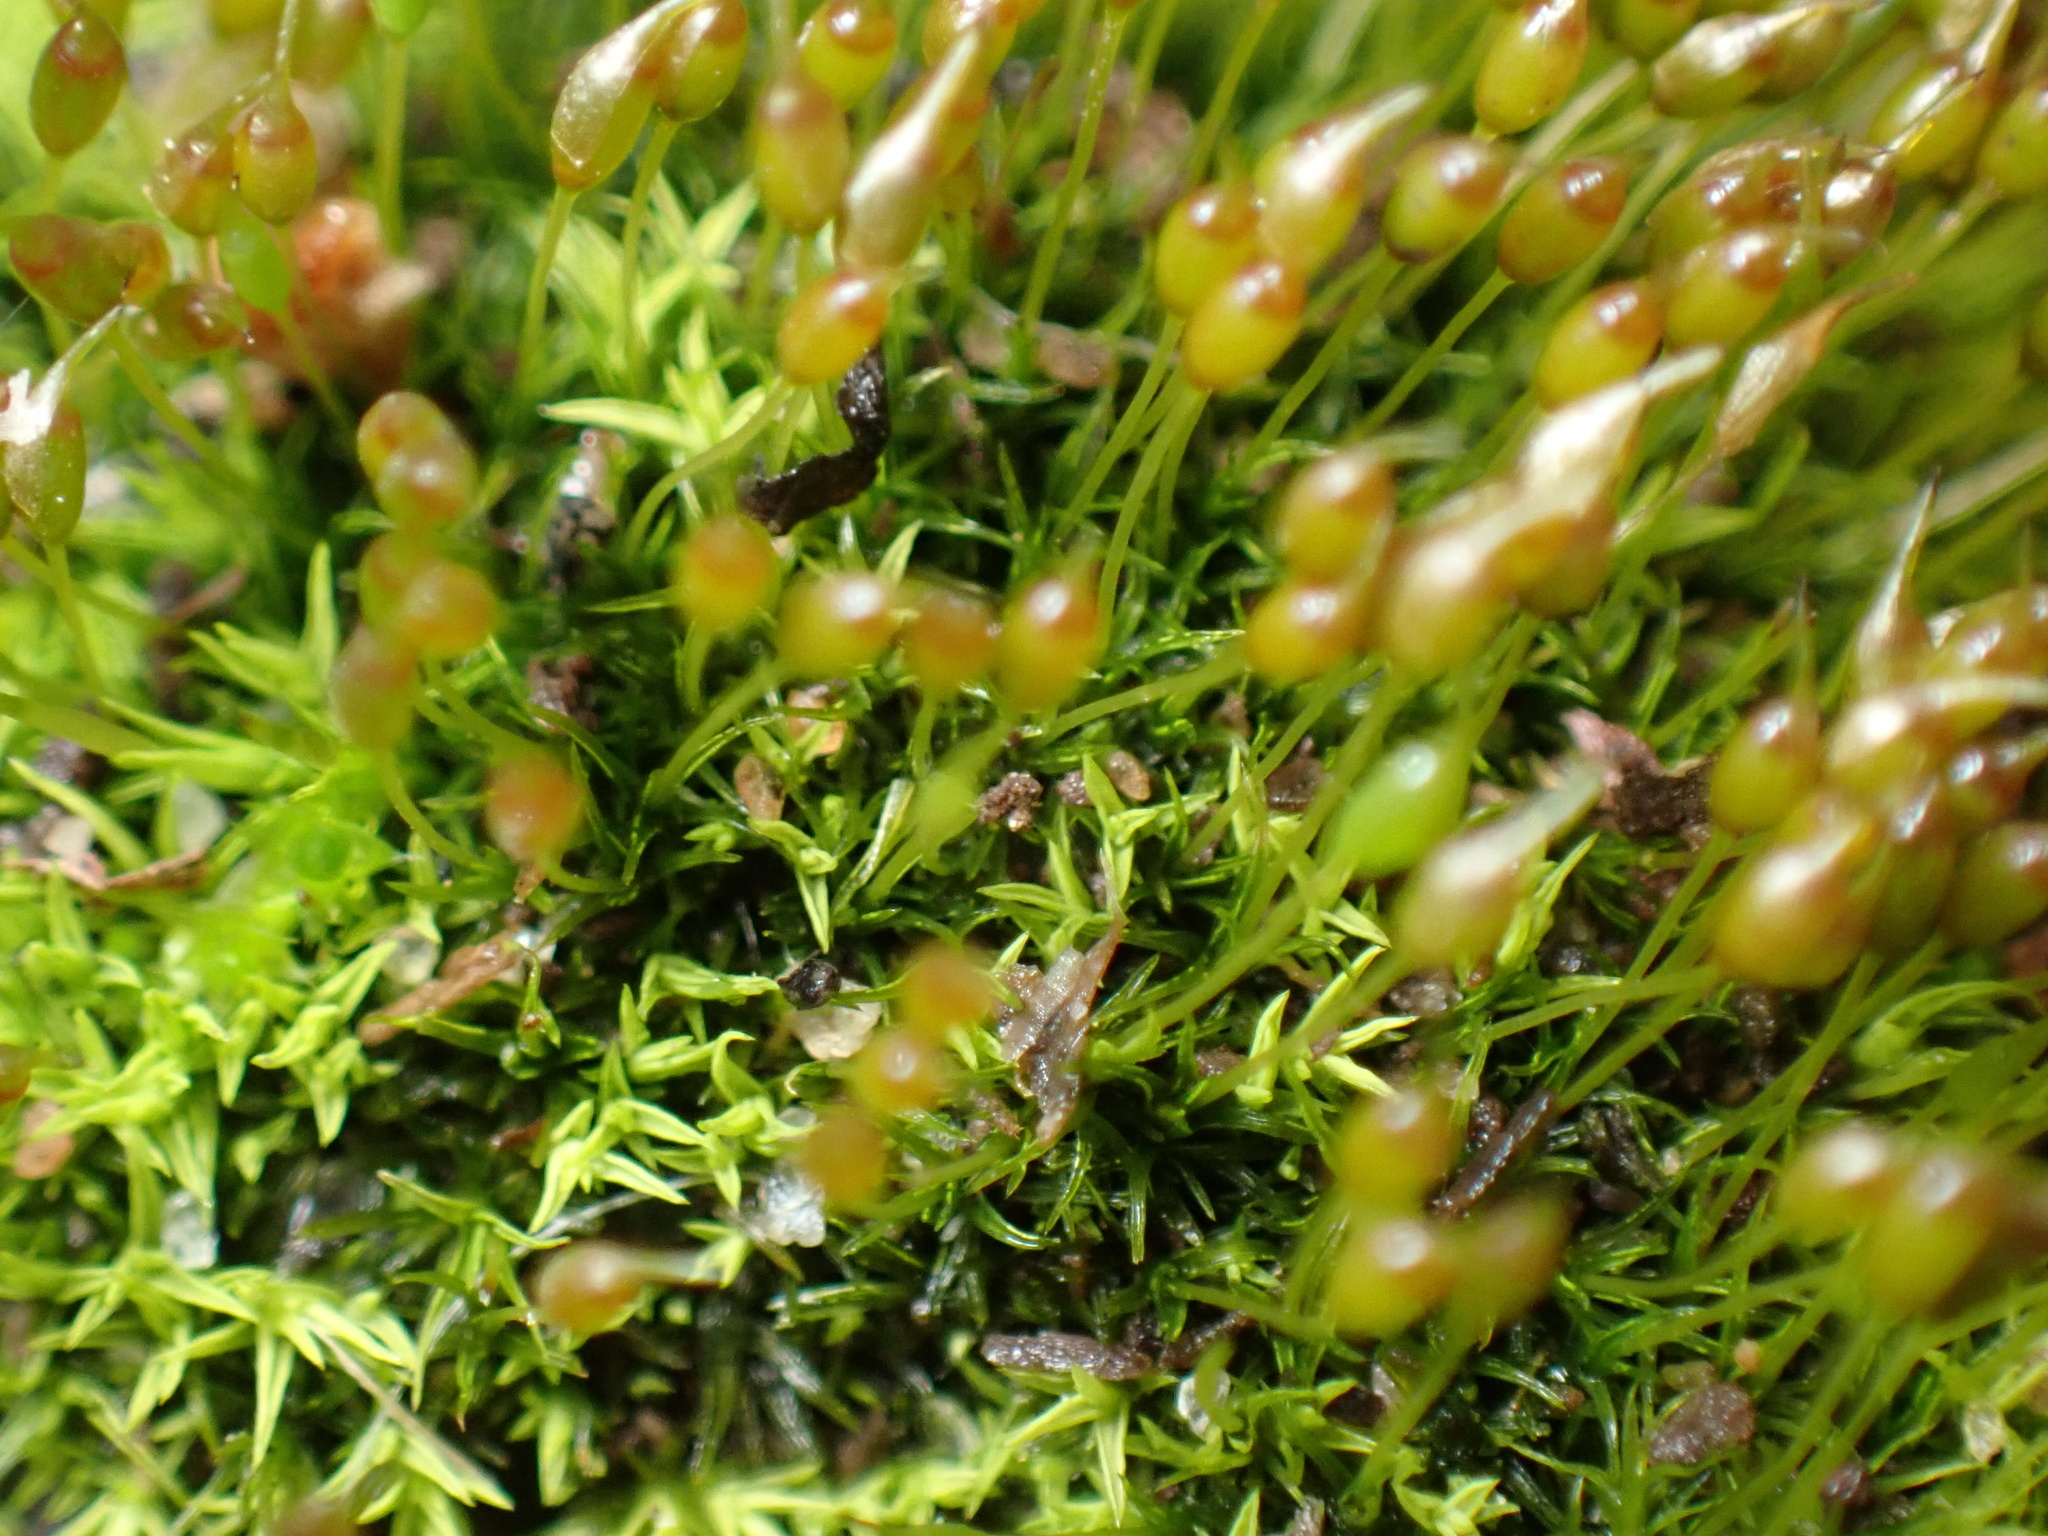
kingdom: Plantae
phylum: Bryophyta
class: Bryopsida
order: Pottiales
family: Pottiaceae
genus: Weissia
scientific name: Weissia controversa
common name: Green-tufted stubble moss
